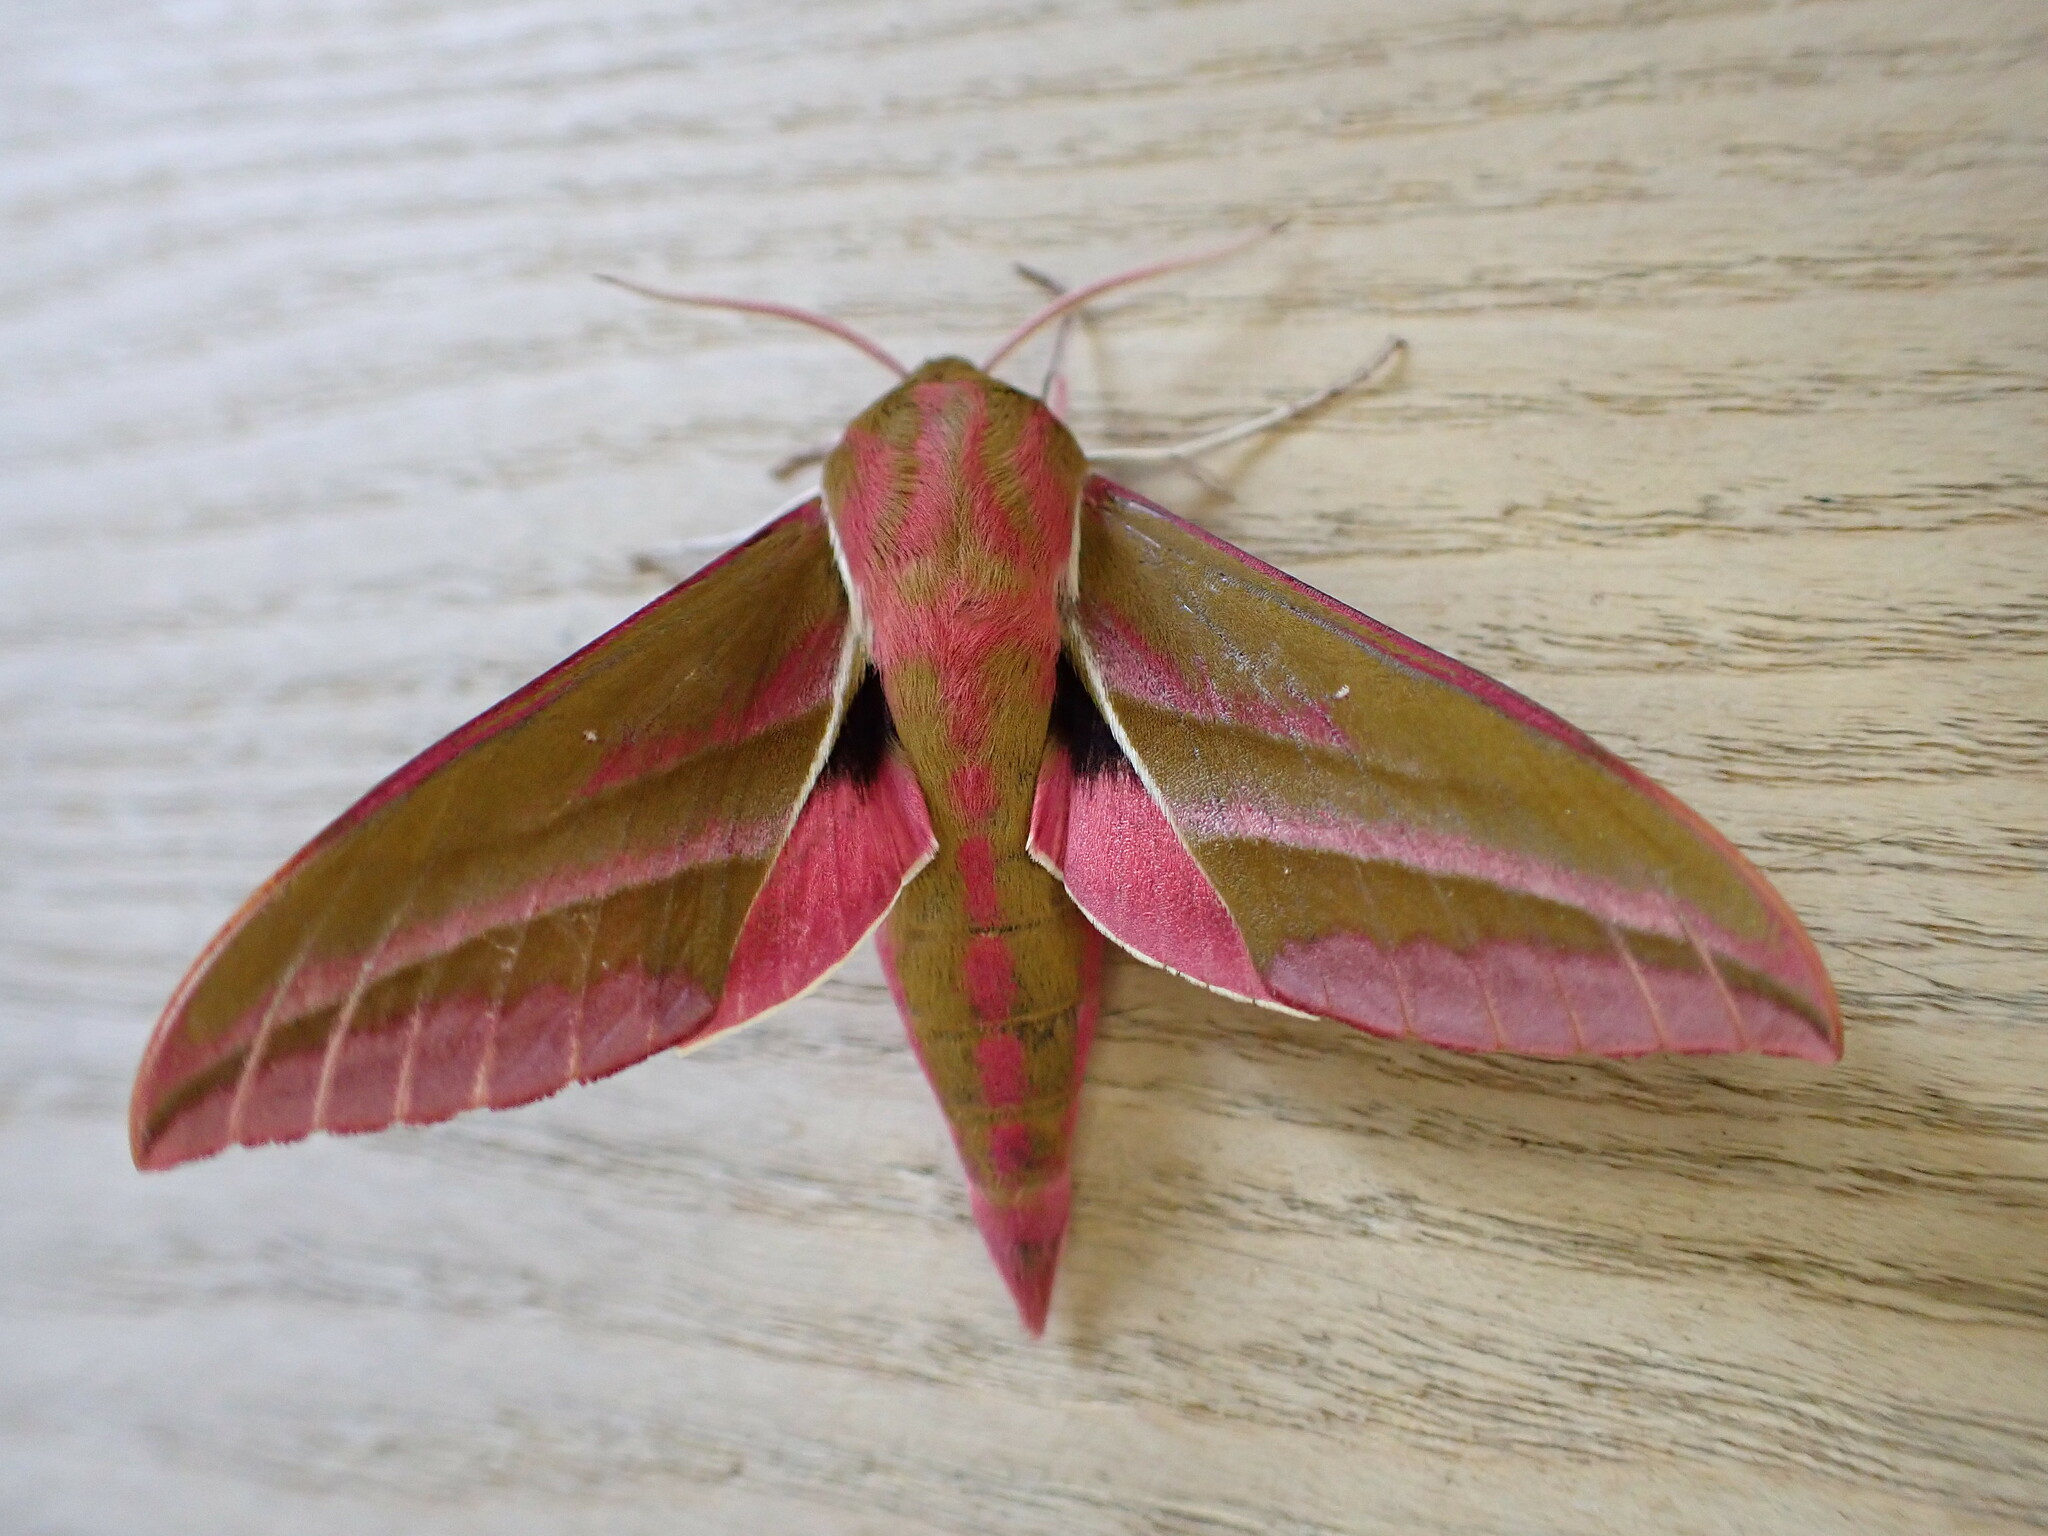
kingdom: Animalia
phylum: Arthropoda
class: Insecta
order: Lepidoptera
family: Sphingidae
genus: Deilephila
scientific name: Deilephila elpenor
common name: Elephant hawk-moth
